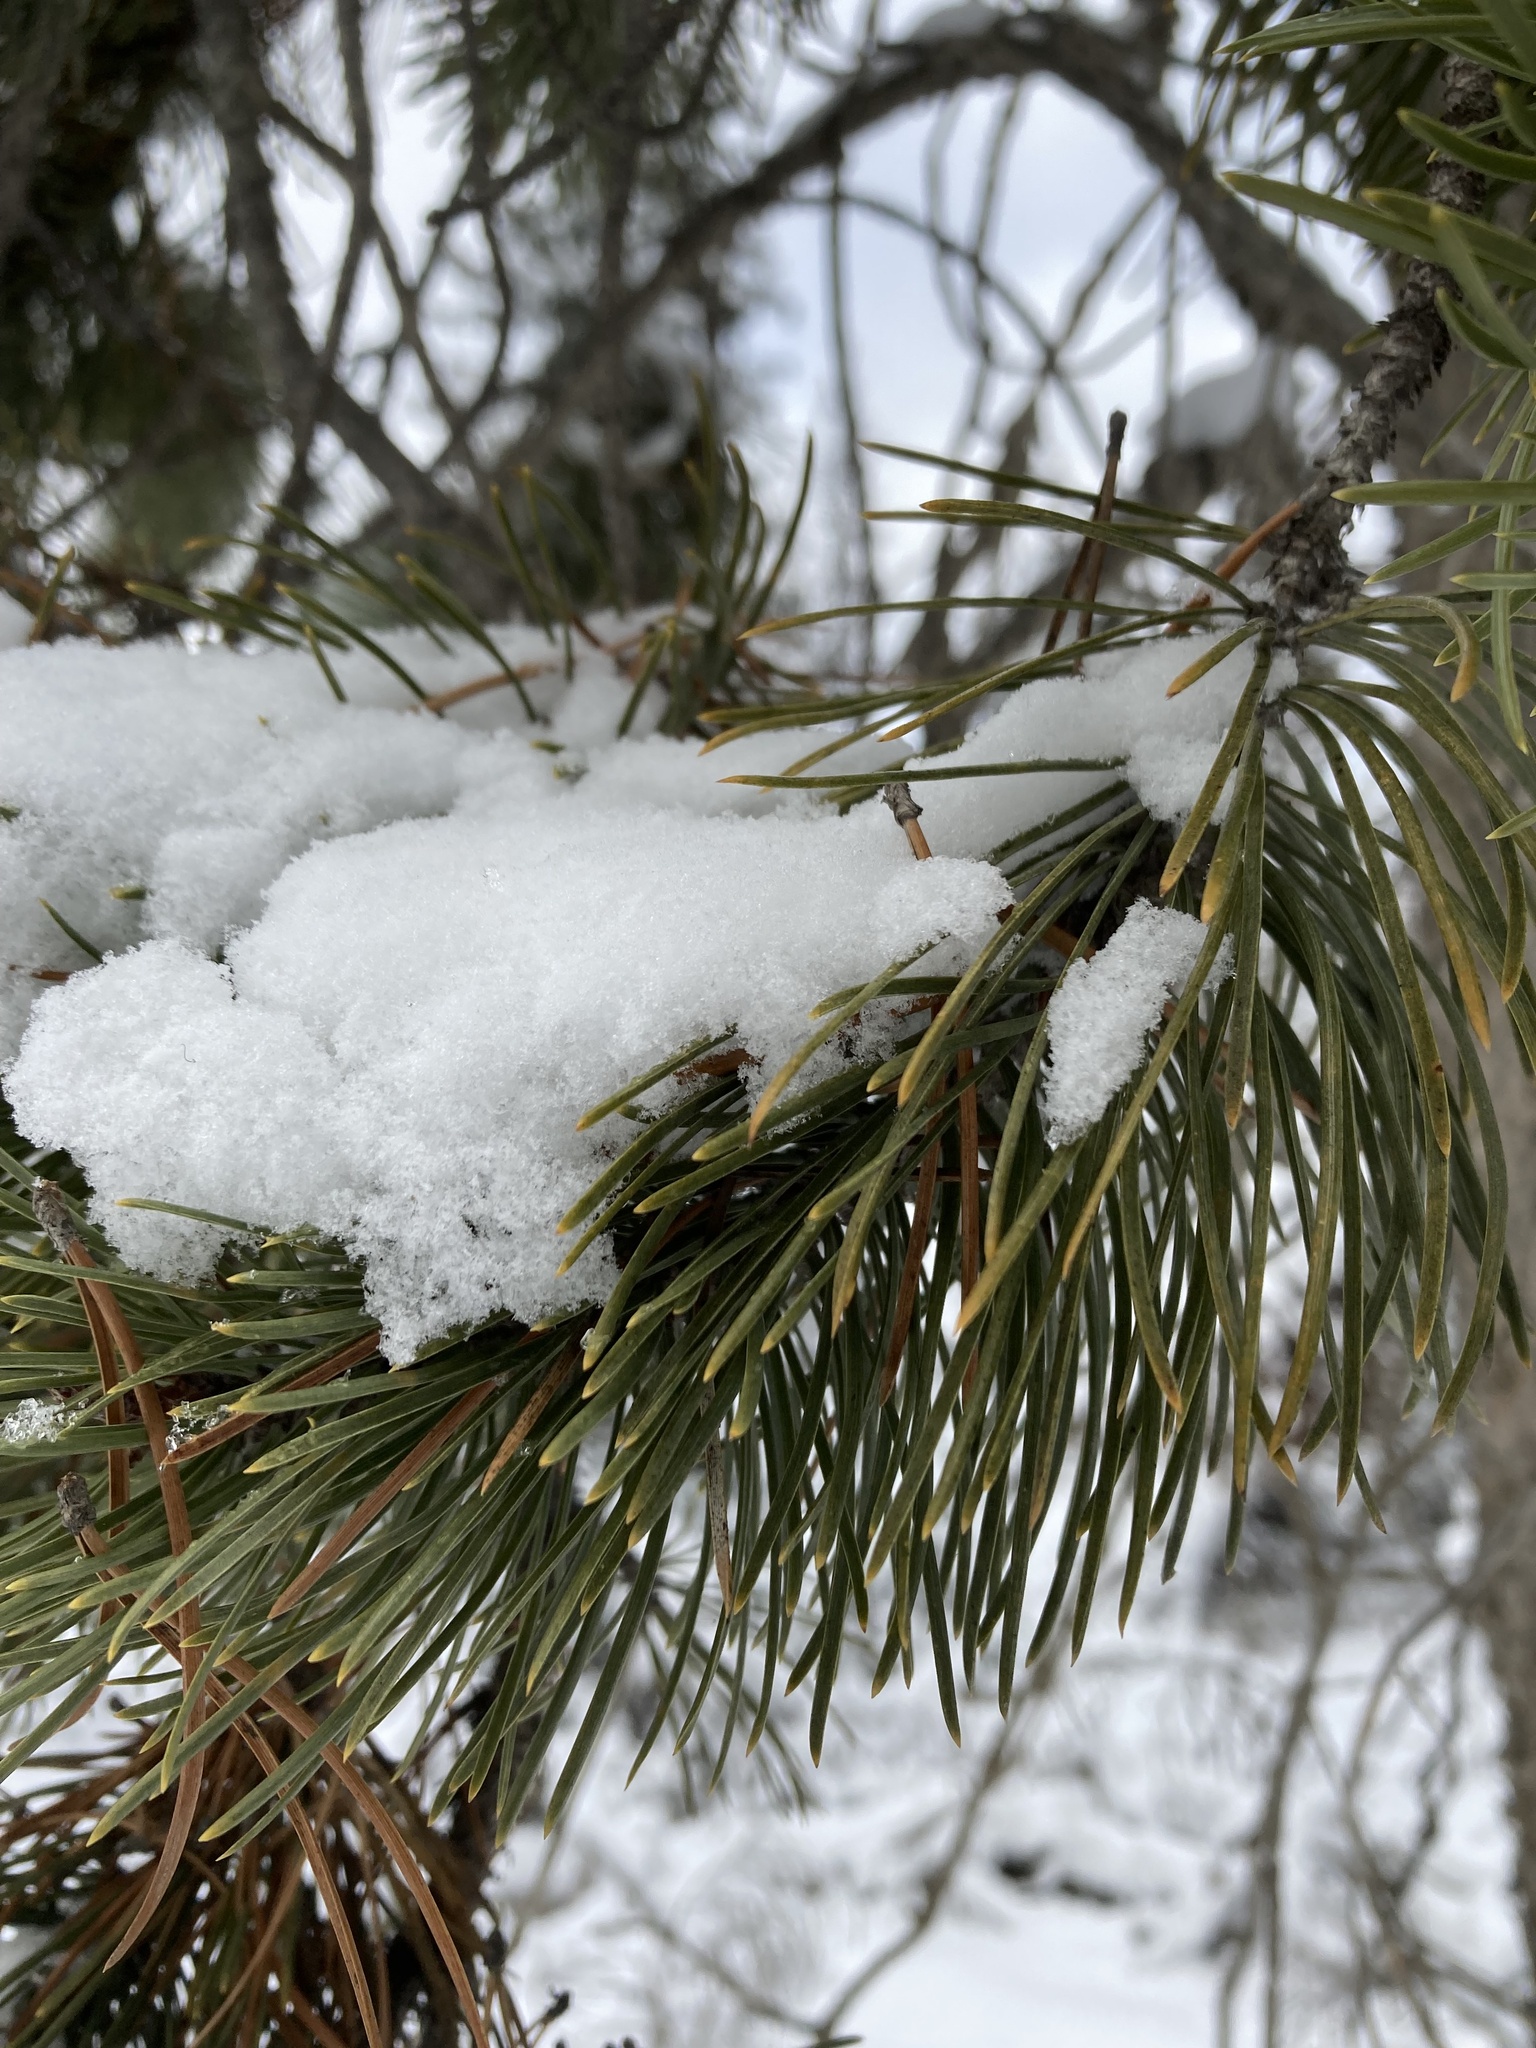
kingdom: Plantae
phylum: Tracheophyta
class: Pinopsida
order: Pinales
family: Pinaceae
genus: Pinus
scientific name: Pinus contorta
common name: Lodgepole pine
